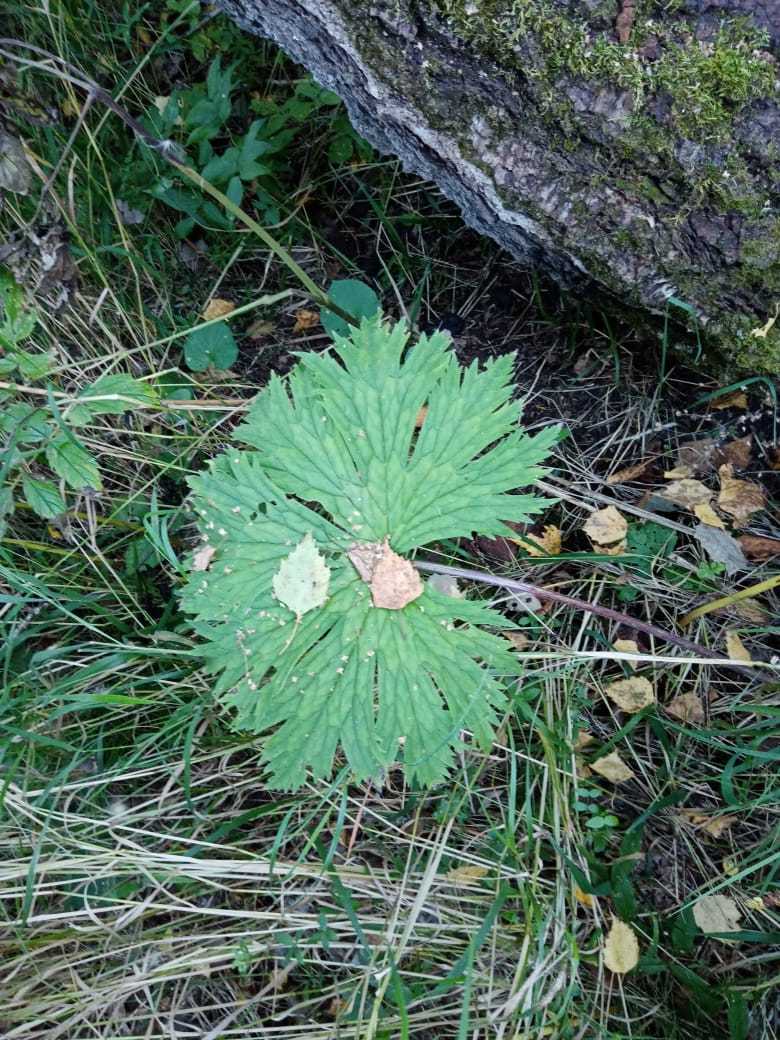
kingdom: Plantae
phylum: Tracheophyta
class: Magnoliopsida
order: Ranunculales
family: Ranunculaceae
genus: Aconitum
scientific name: Aconitum septentrionale
